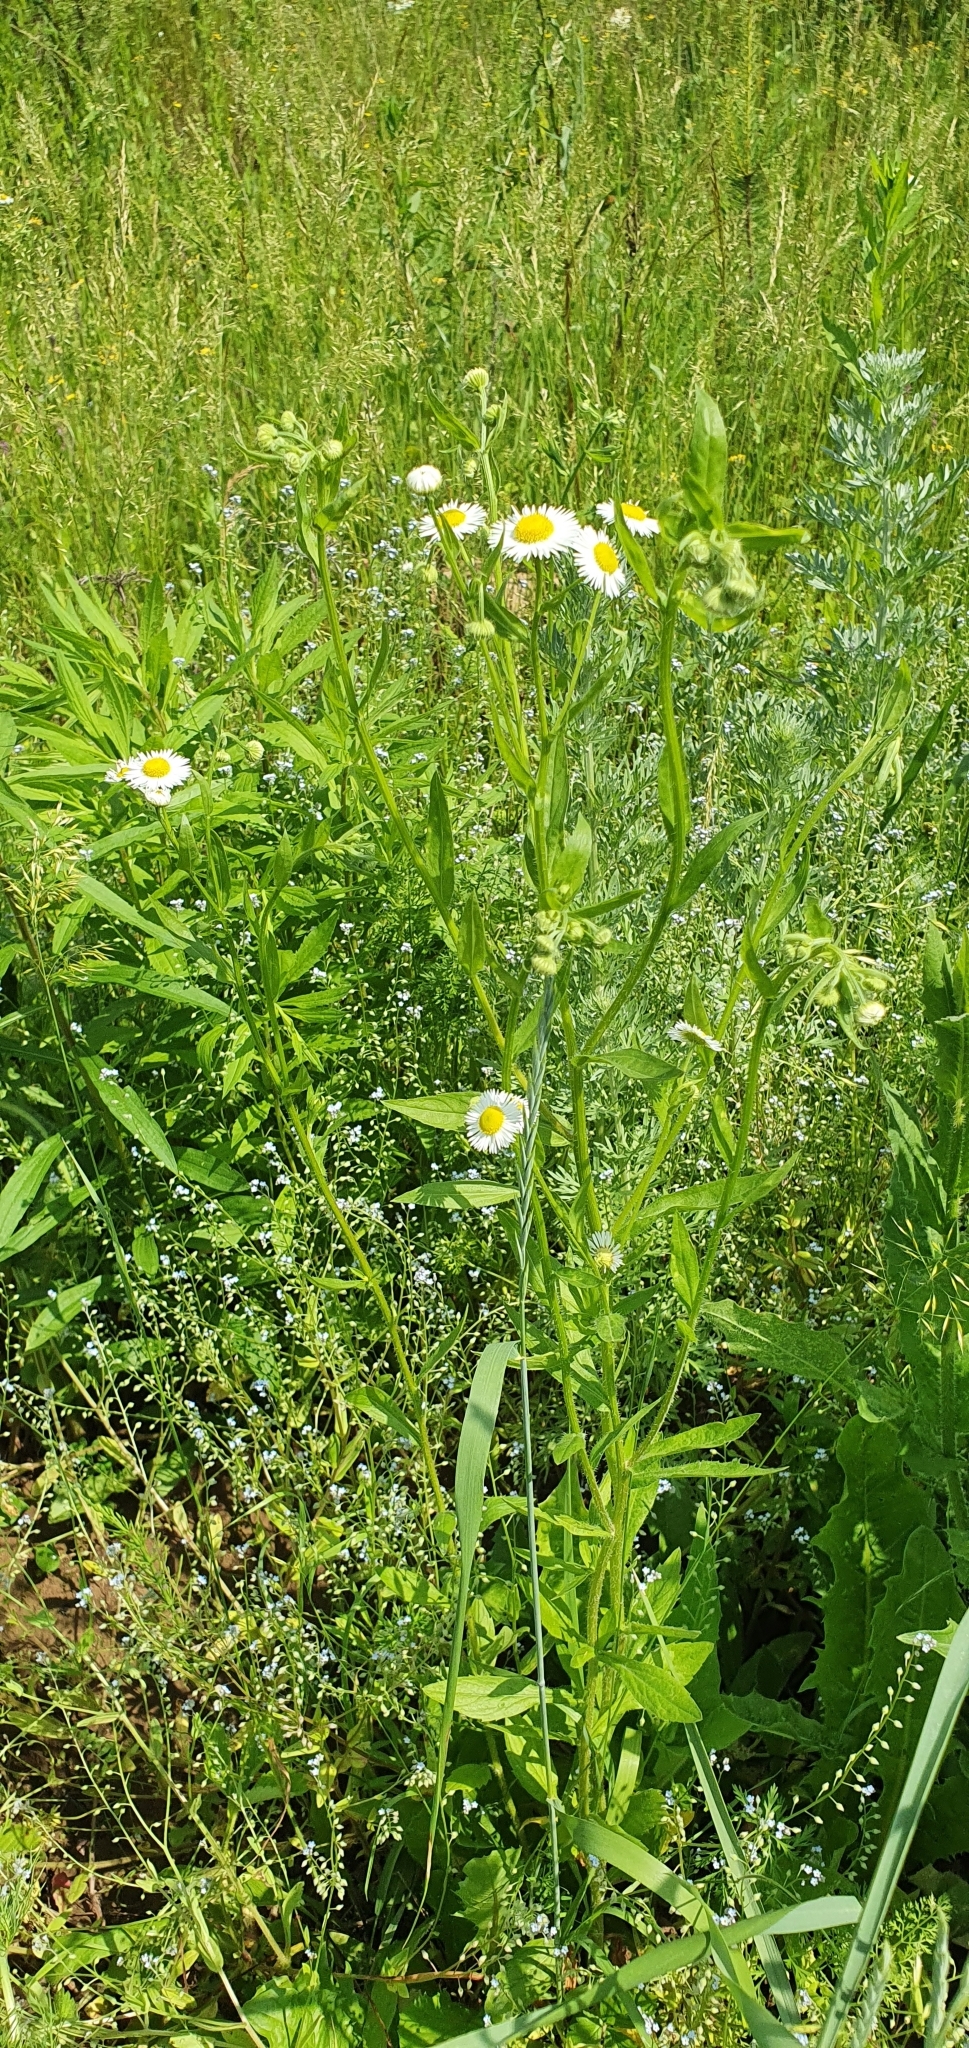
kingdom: Plantae
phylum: Tracheophyta
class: Magnoliopsida
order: Asterales
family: Asteraceae
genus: Erigeron
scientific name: Erigeron annuus
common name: Tall fleabane
